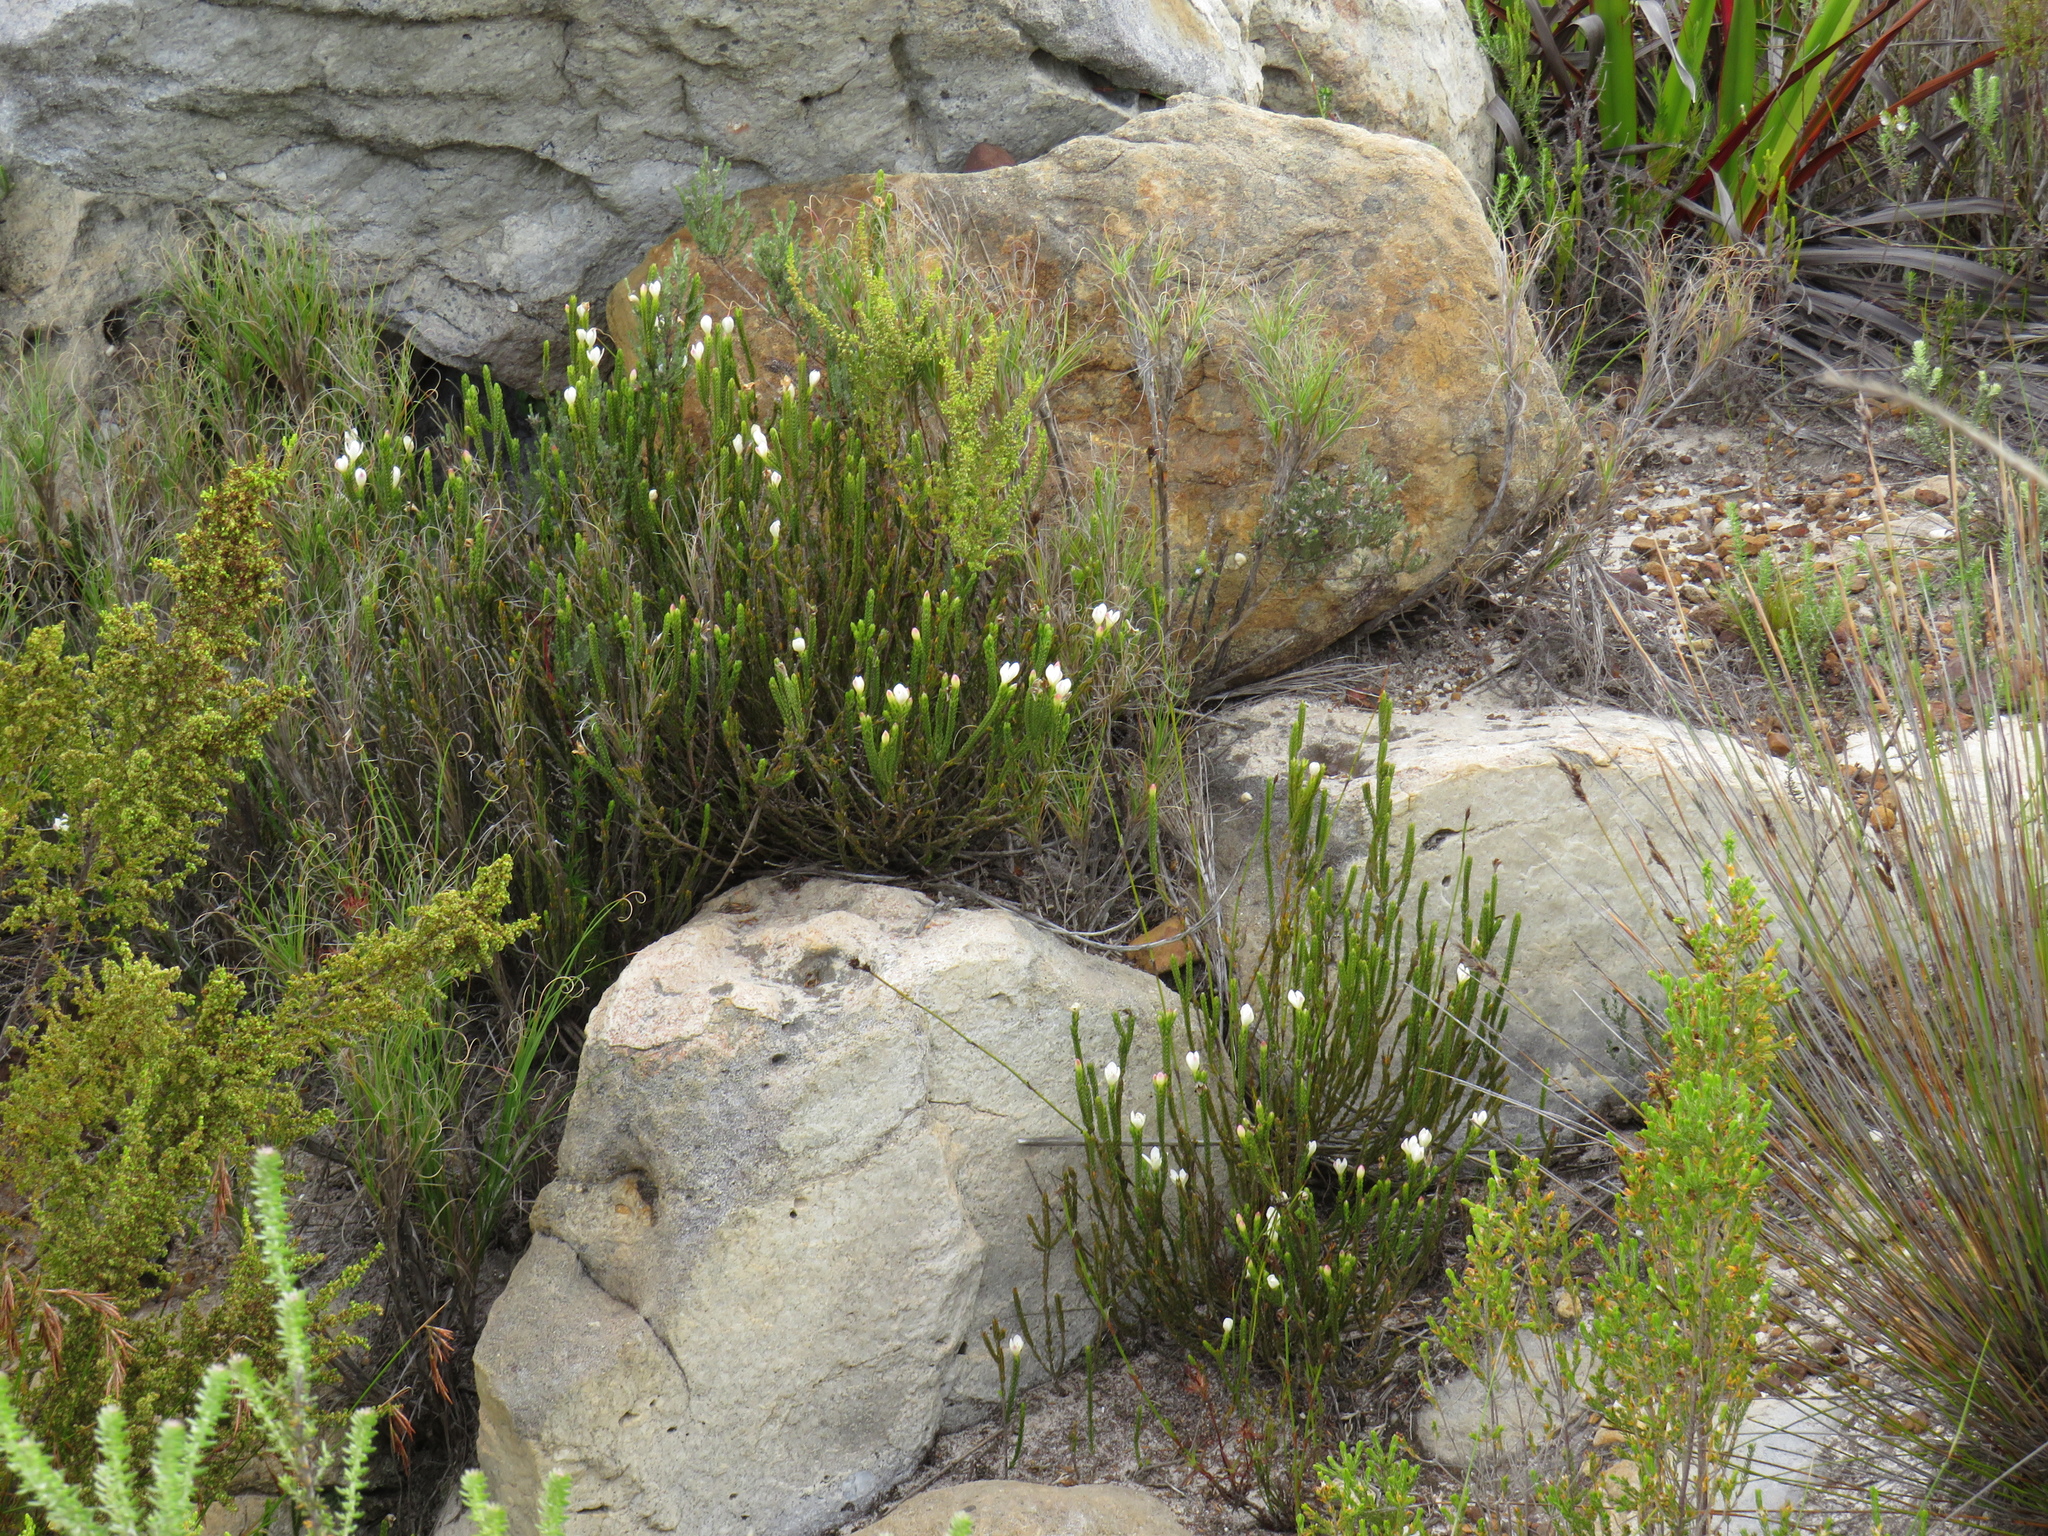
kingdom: Plantae
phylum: Tracheophyta
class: Magnoliopsida
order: Malvales
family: Thymelaeaceae
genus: Lachnaea
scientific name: Lachnaea grandiflora
